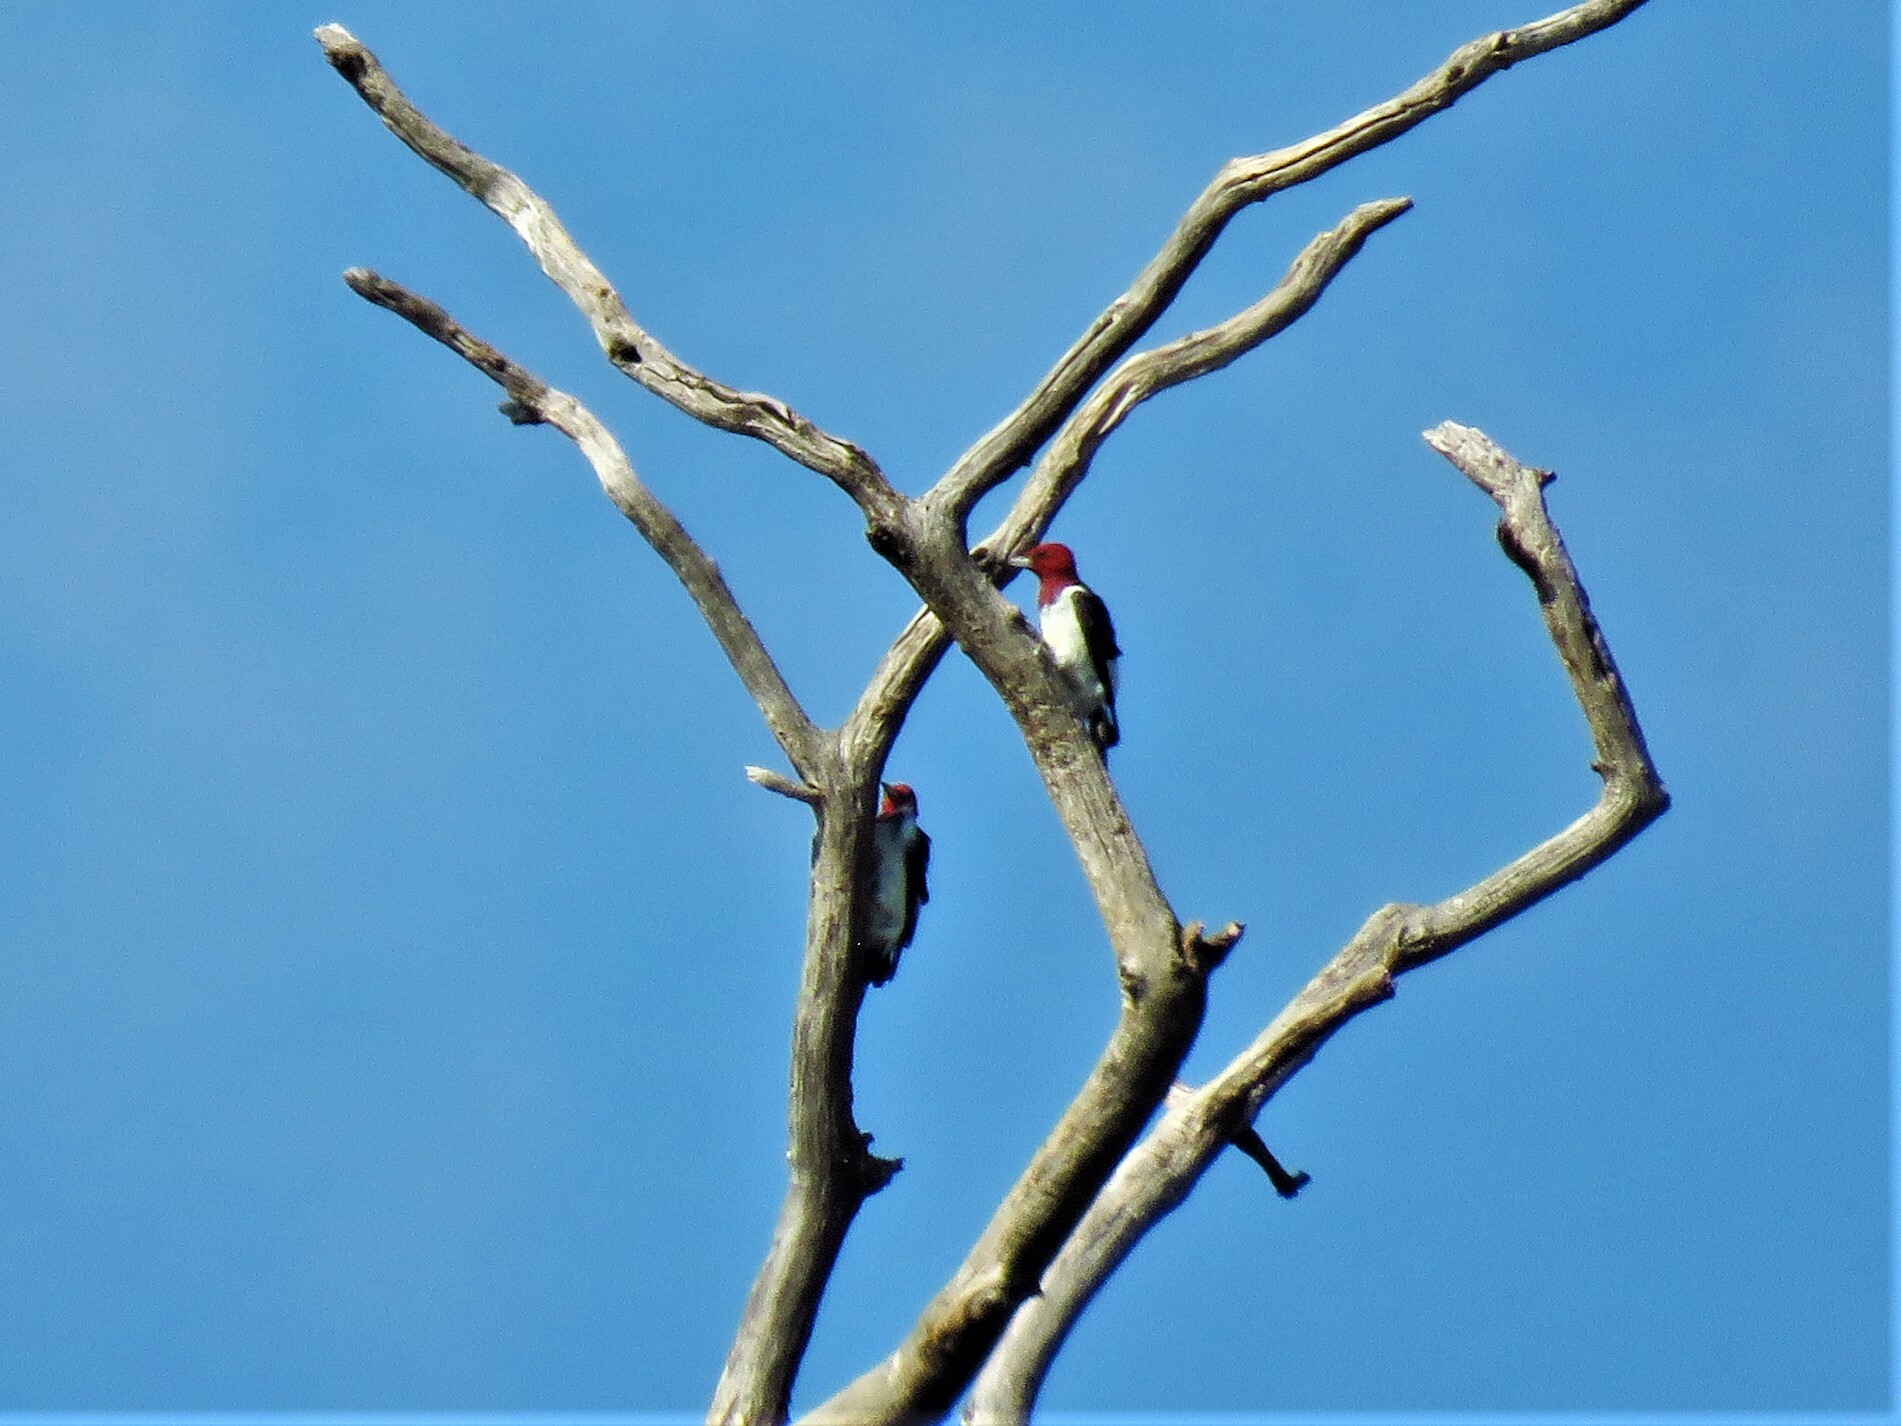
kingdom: Animalia
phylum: Chordata
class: Aves
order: Piciformes
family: Picidae
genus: Melanerpes
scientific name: Melanerpes erythrocephalus
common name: Red-headed woodpecker
